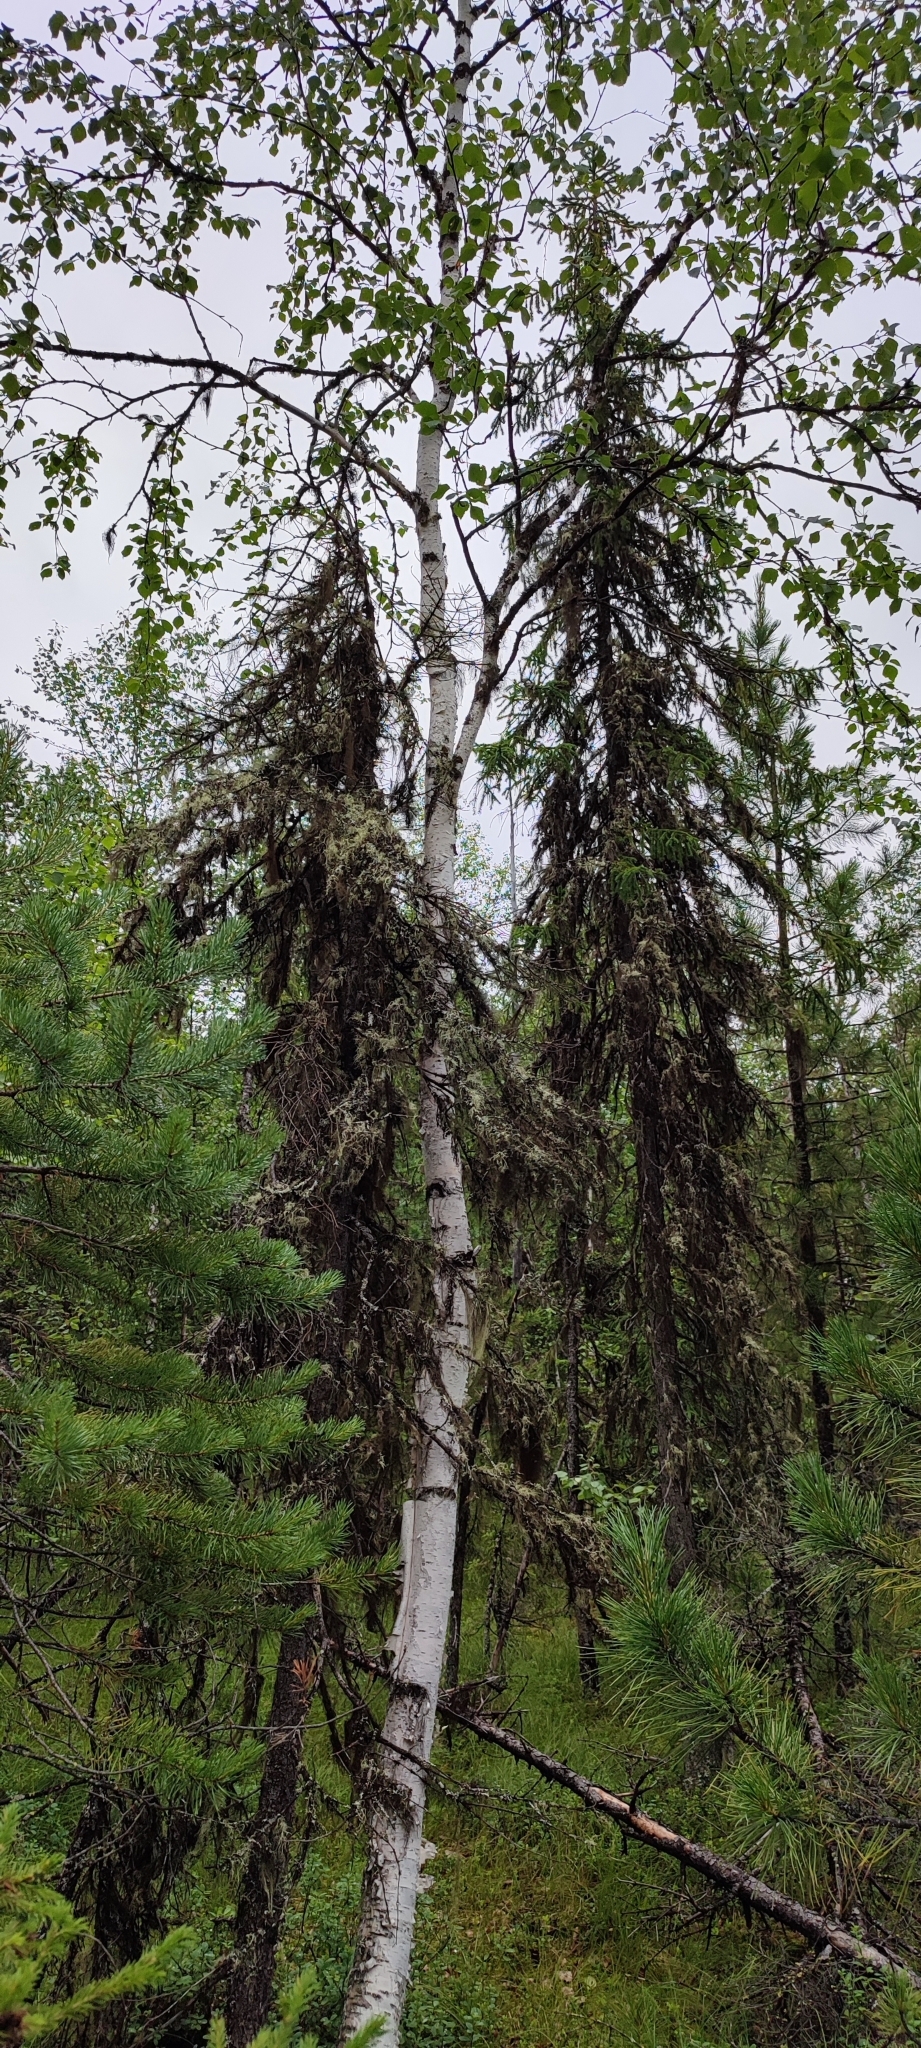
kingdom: Plantae
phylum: Tracheophyta
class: Magnoliopsida
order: Fagales
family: Betulaceae
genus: Betula
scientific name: Betula pubescens
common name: Downy birch
